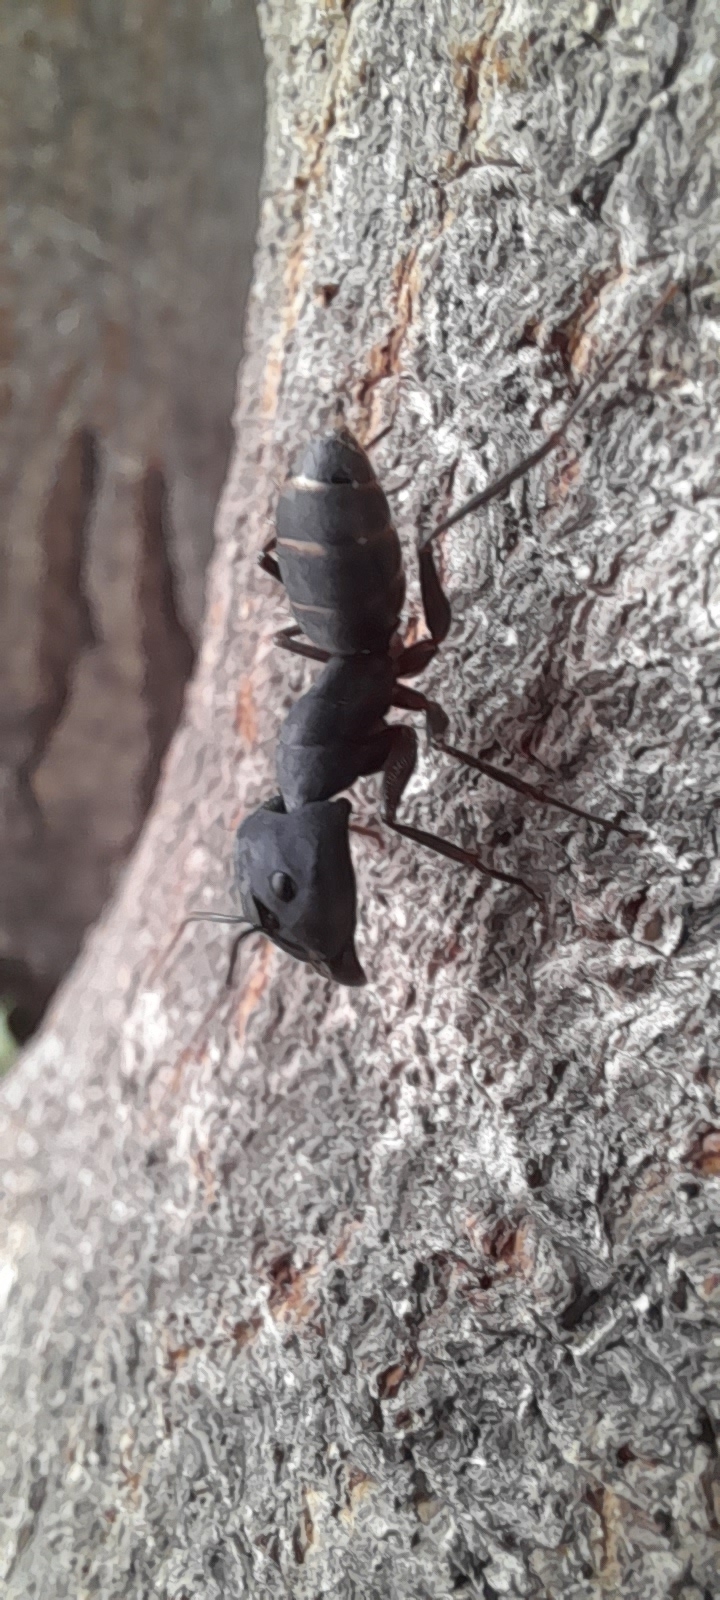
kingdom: Animalia
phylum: Arthropoda
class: Insecta
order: Hymenoptera
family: Formicidae
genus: Camponotus
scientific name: Camponotus compressus
